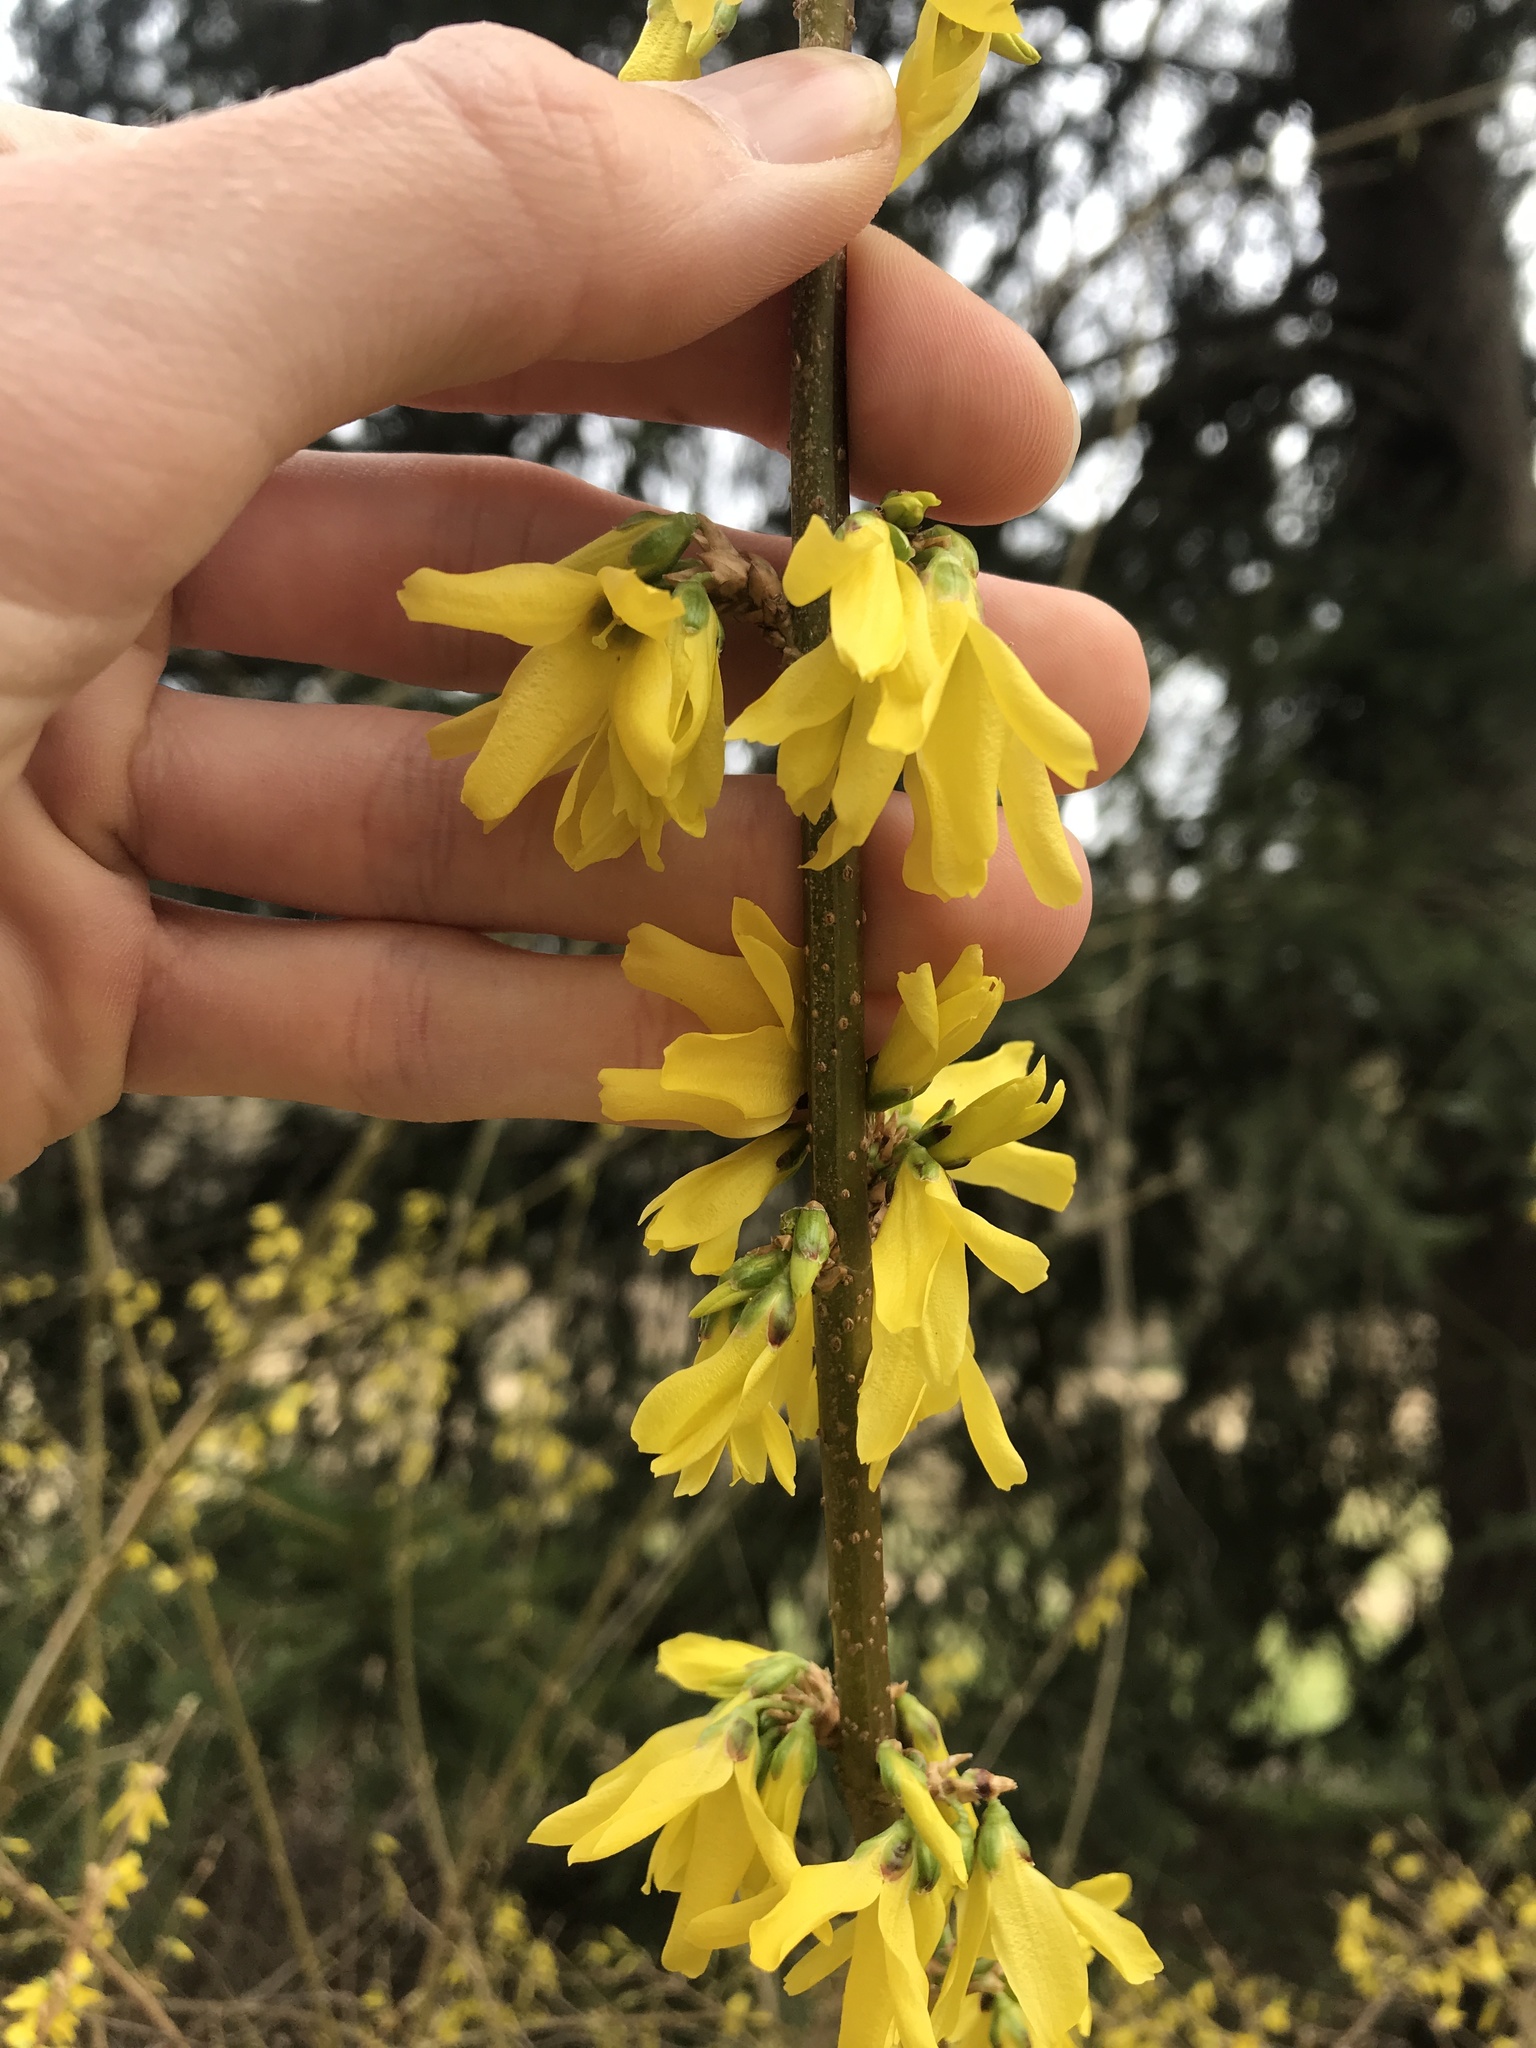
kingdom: Plantae
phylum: Tracheophyta
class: Magnoliopsida
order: Lamiales
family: Oleaceae
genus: Forsythia
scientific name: Forsythia intermedia
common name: Forsythia
